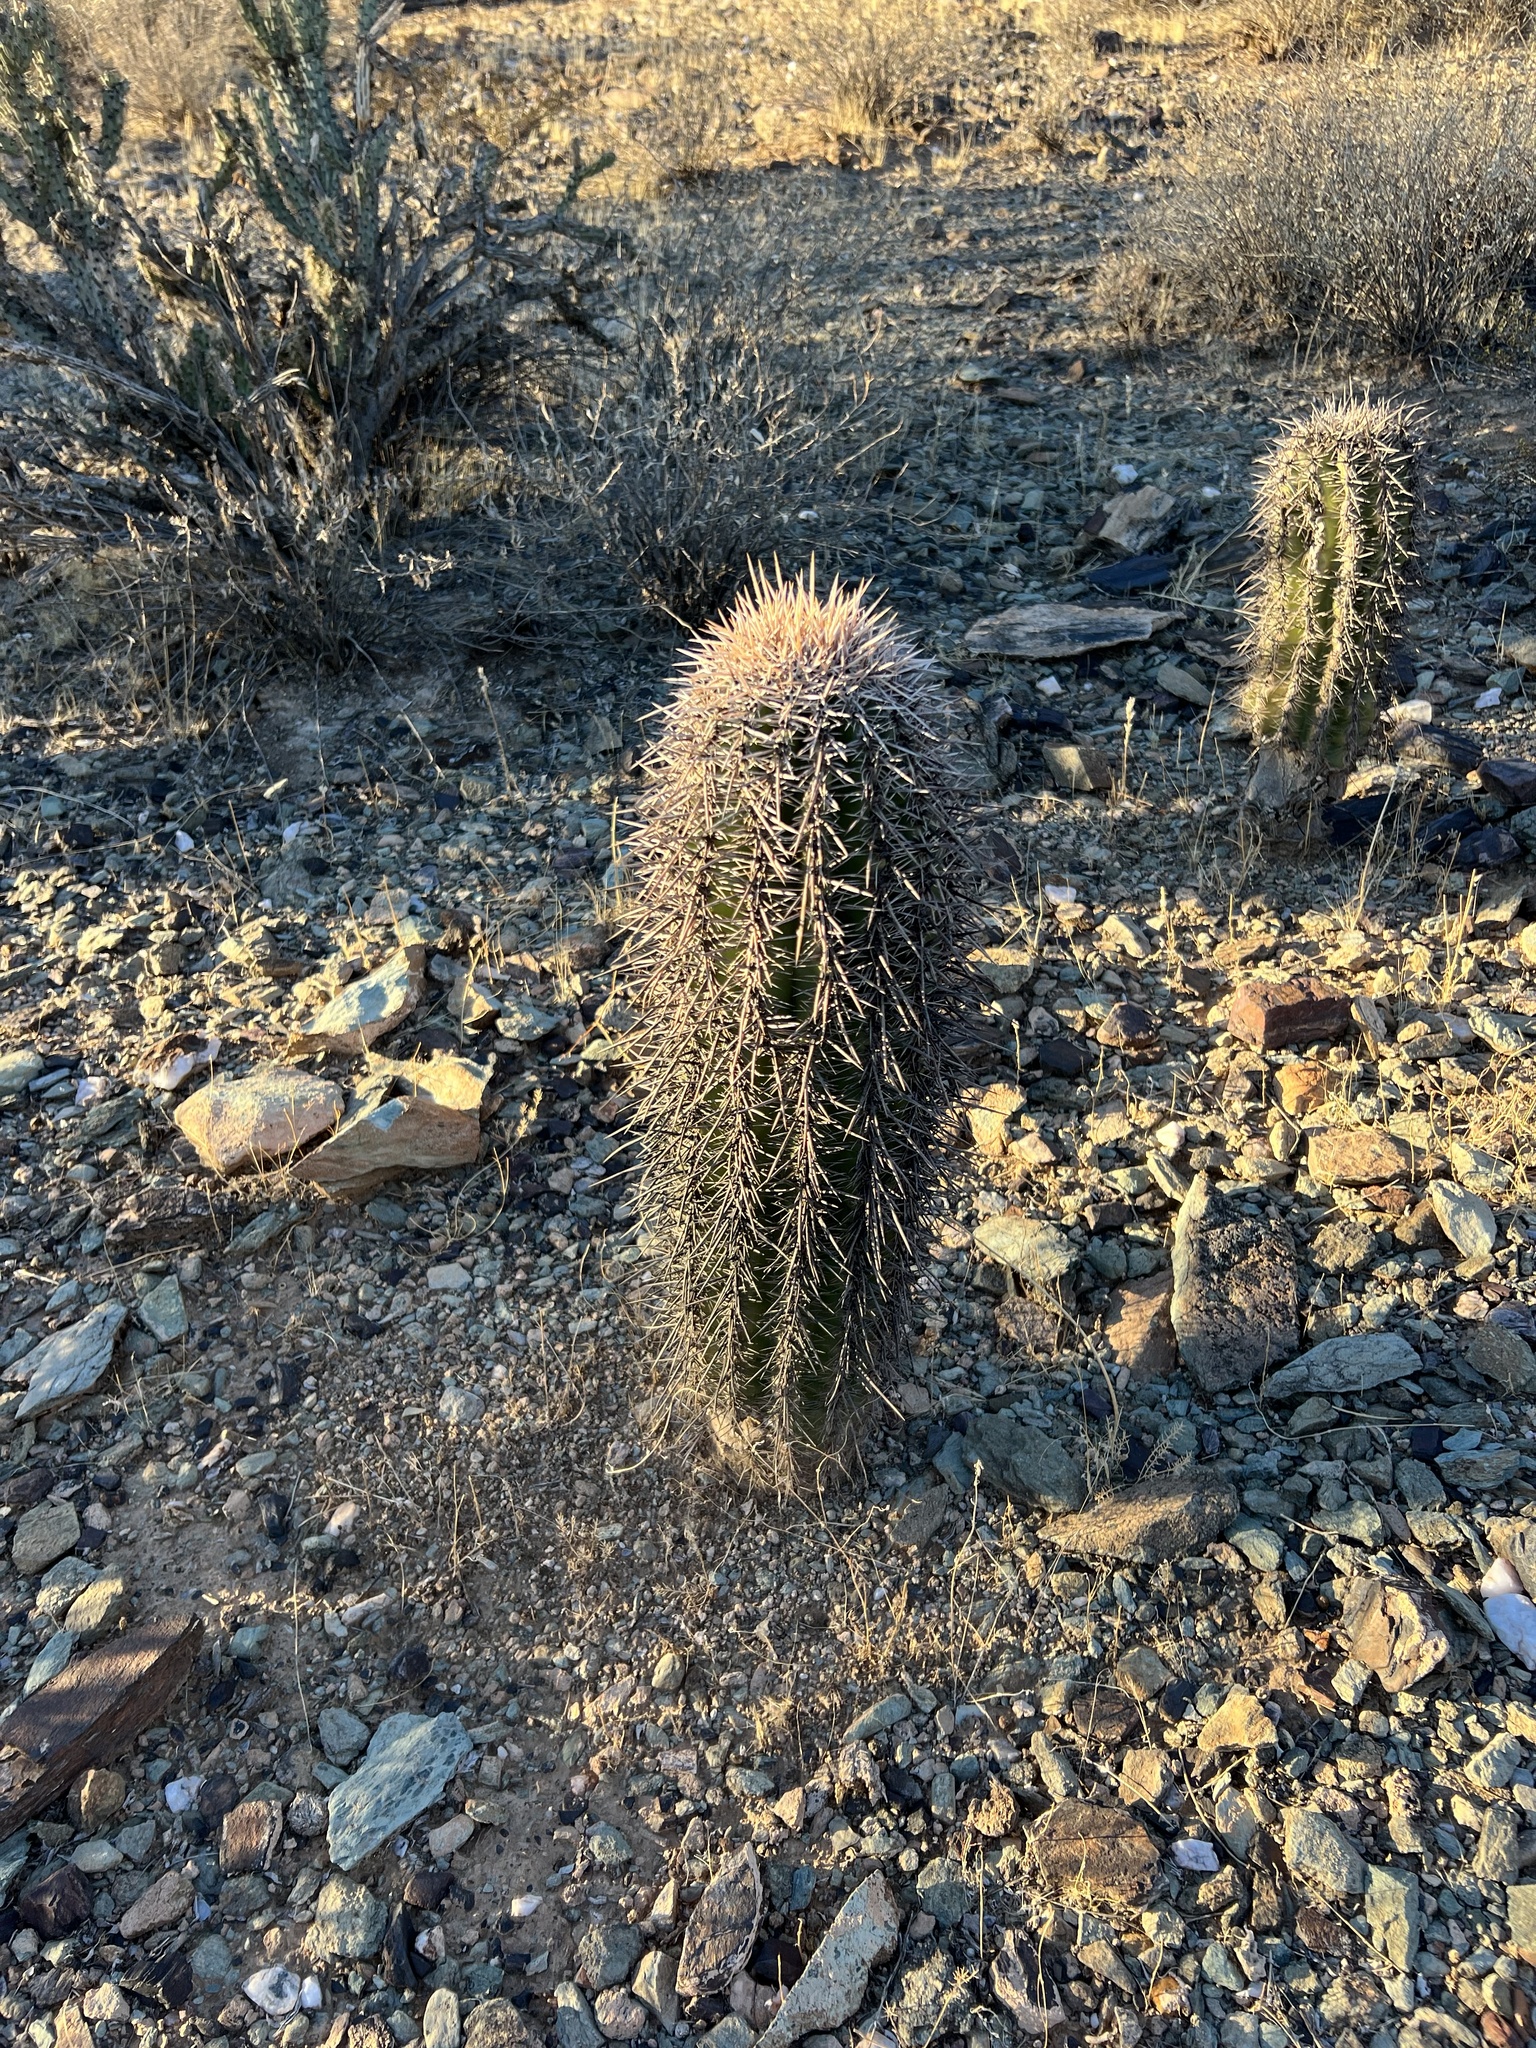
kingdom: Plantae
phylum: Tracheophyta
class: Magnoliopsida
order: Caryophyllales
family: Cactaceae
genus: Carnegiea
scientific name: Carnegiea gigantea
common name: Saguaro
